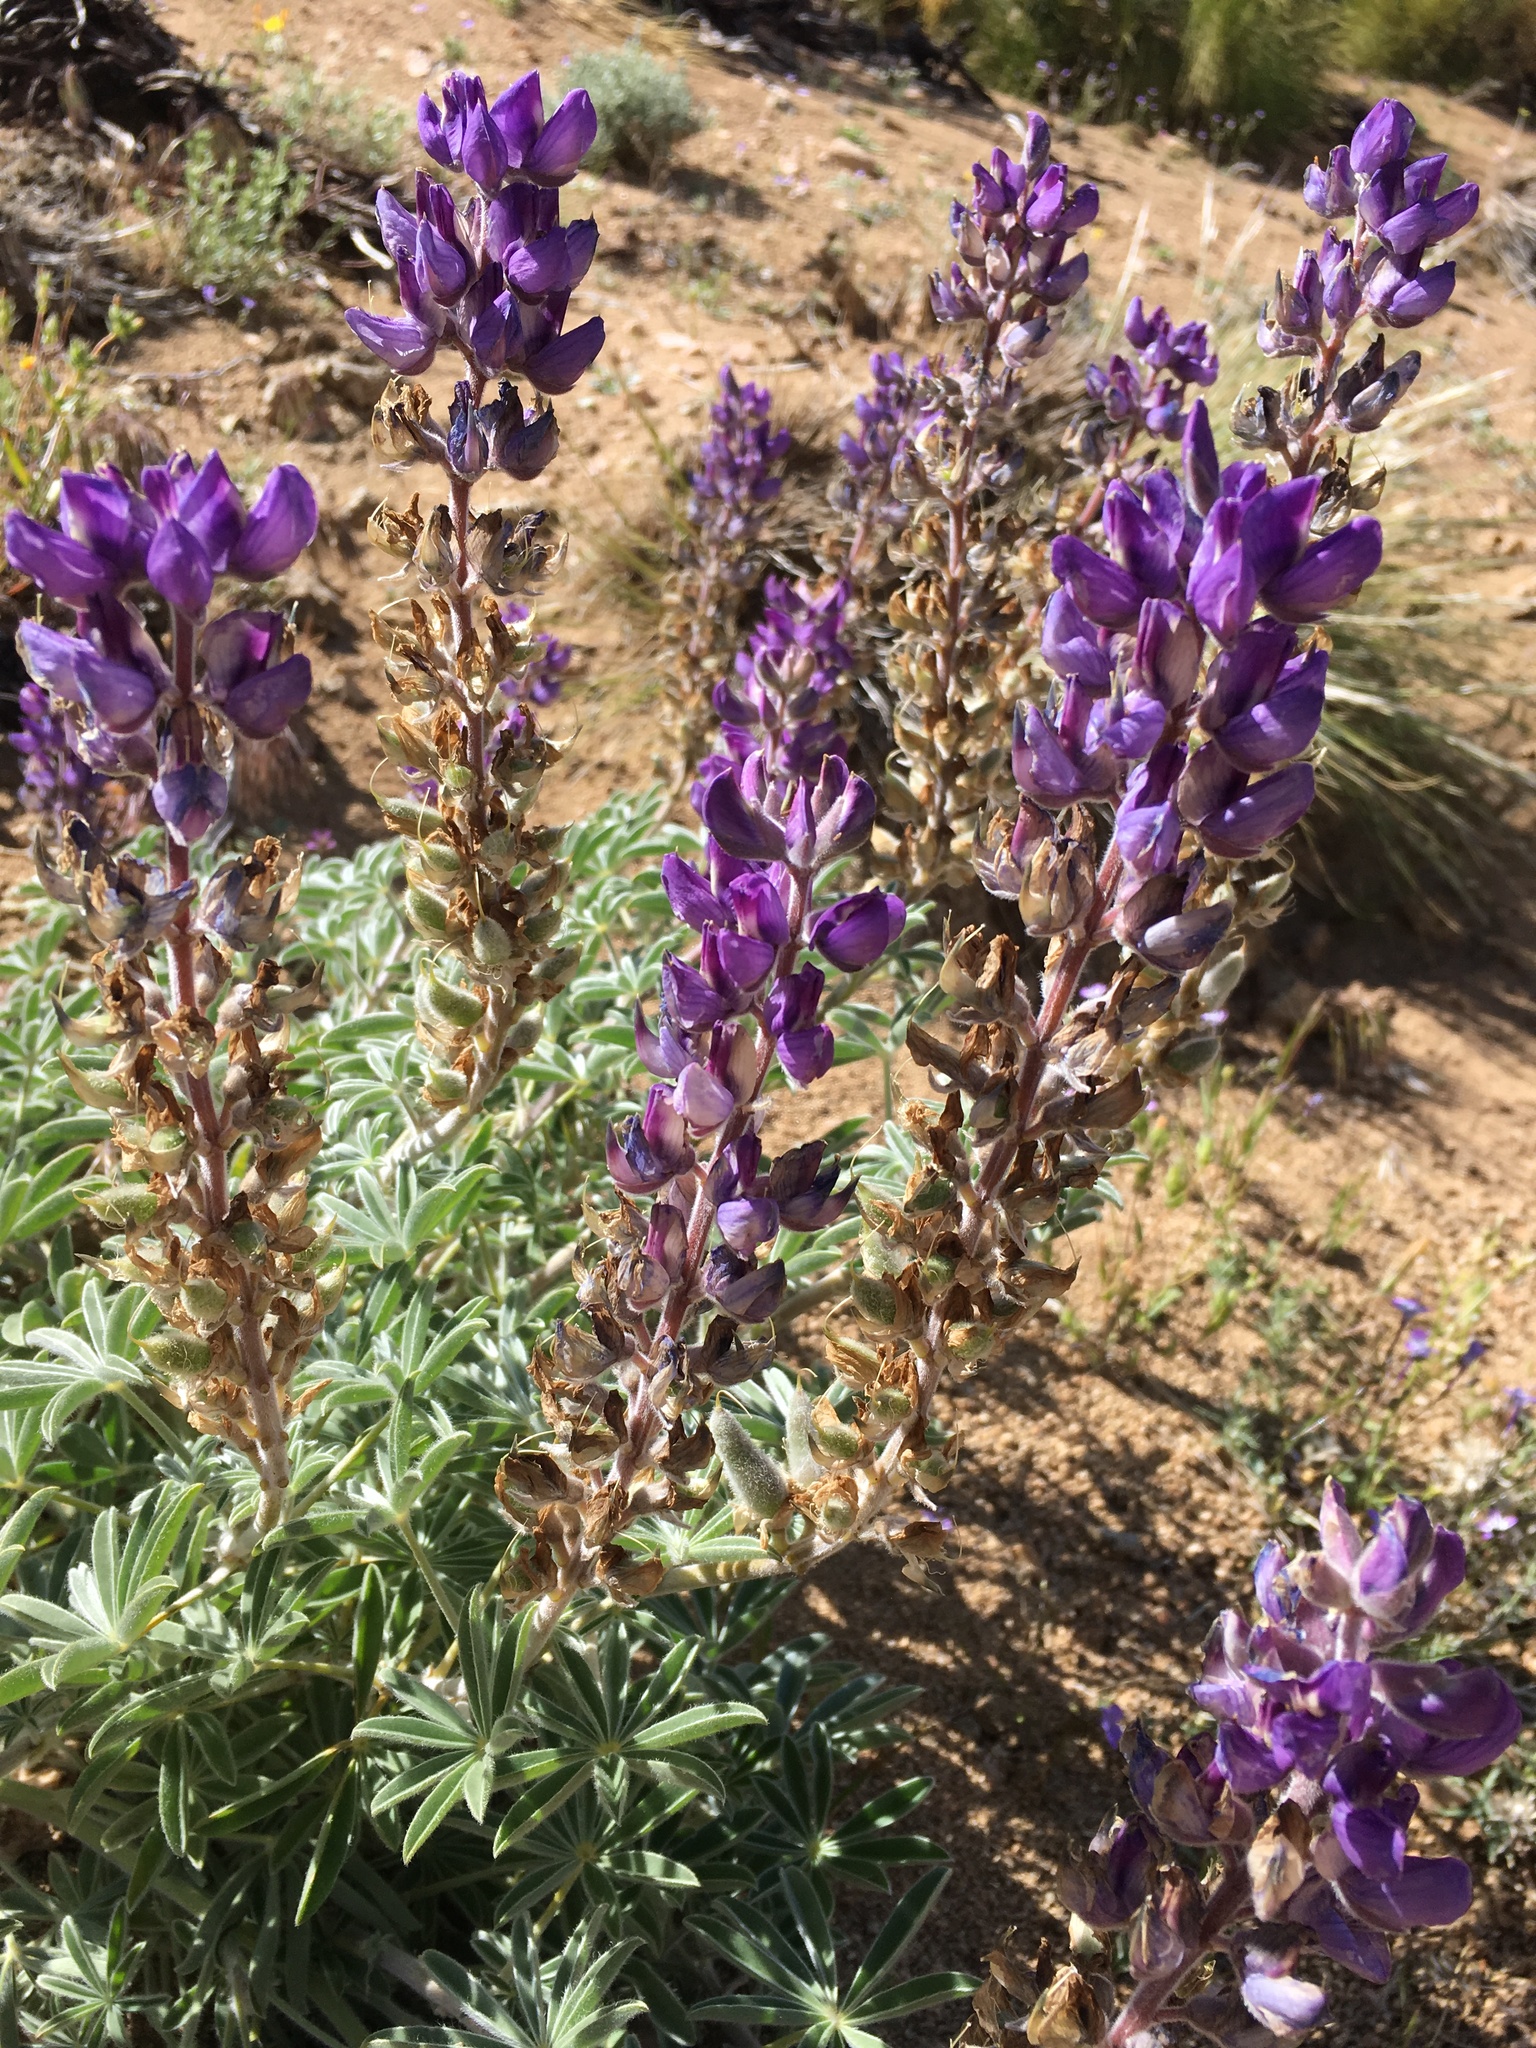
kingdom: Plantae
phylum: Tracheophyta
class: Magnoliopsida
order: Fabales
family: Fabaceae
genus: Lupinus
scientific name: Lupinus formosus
